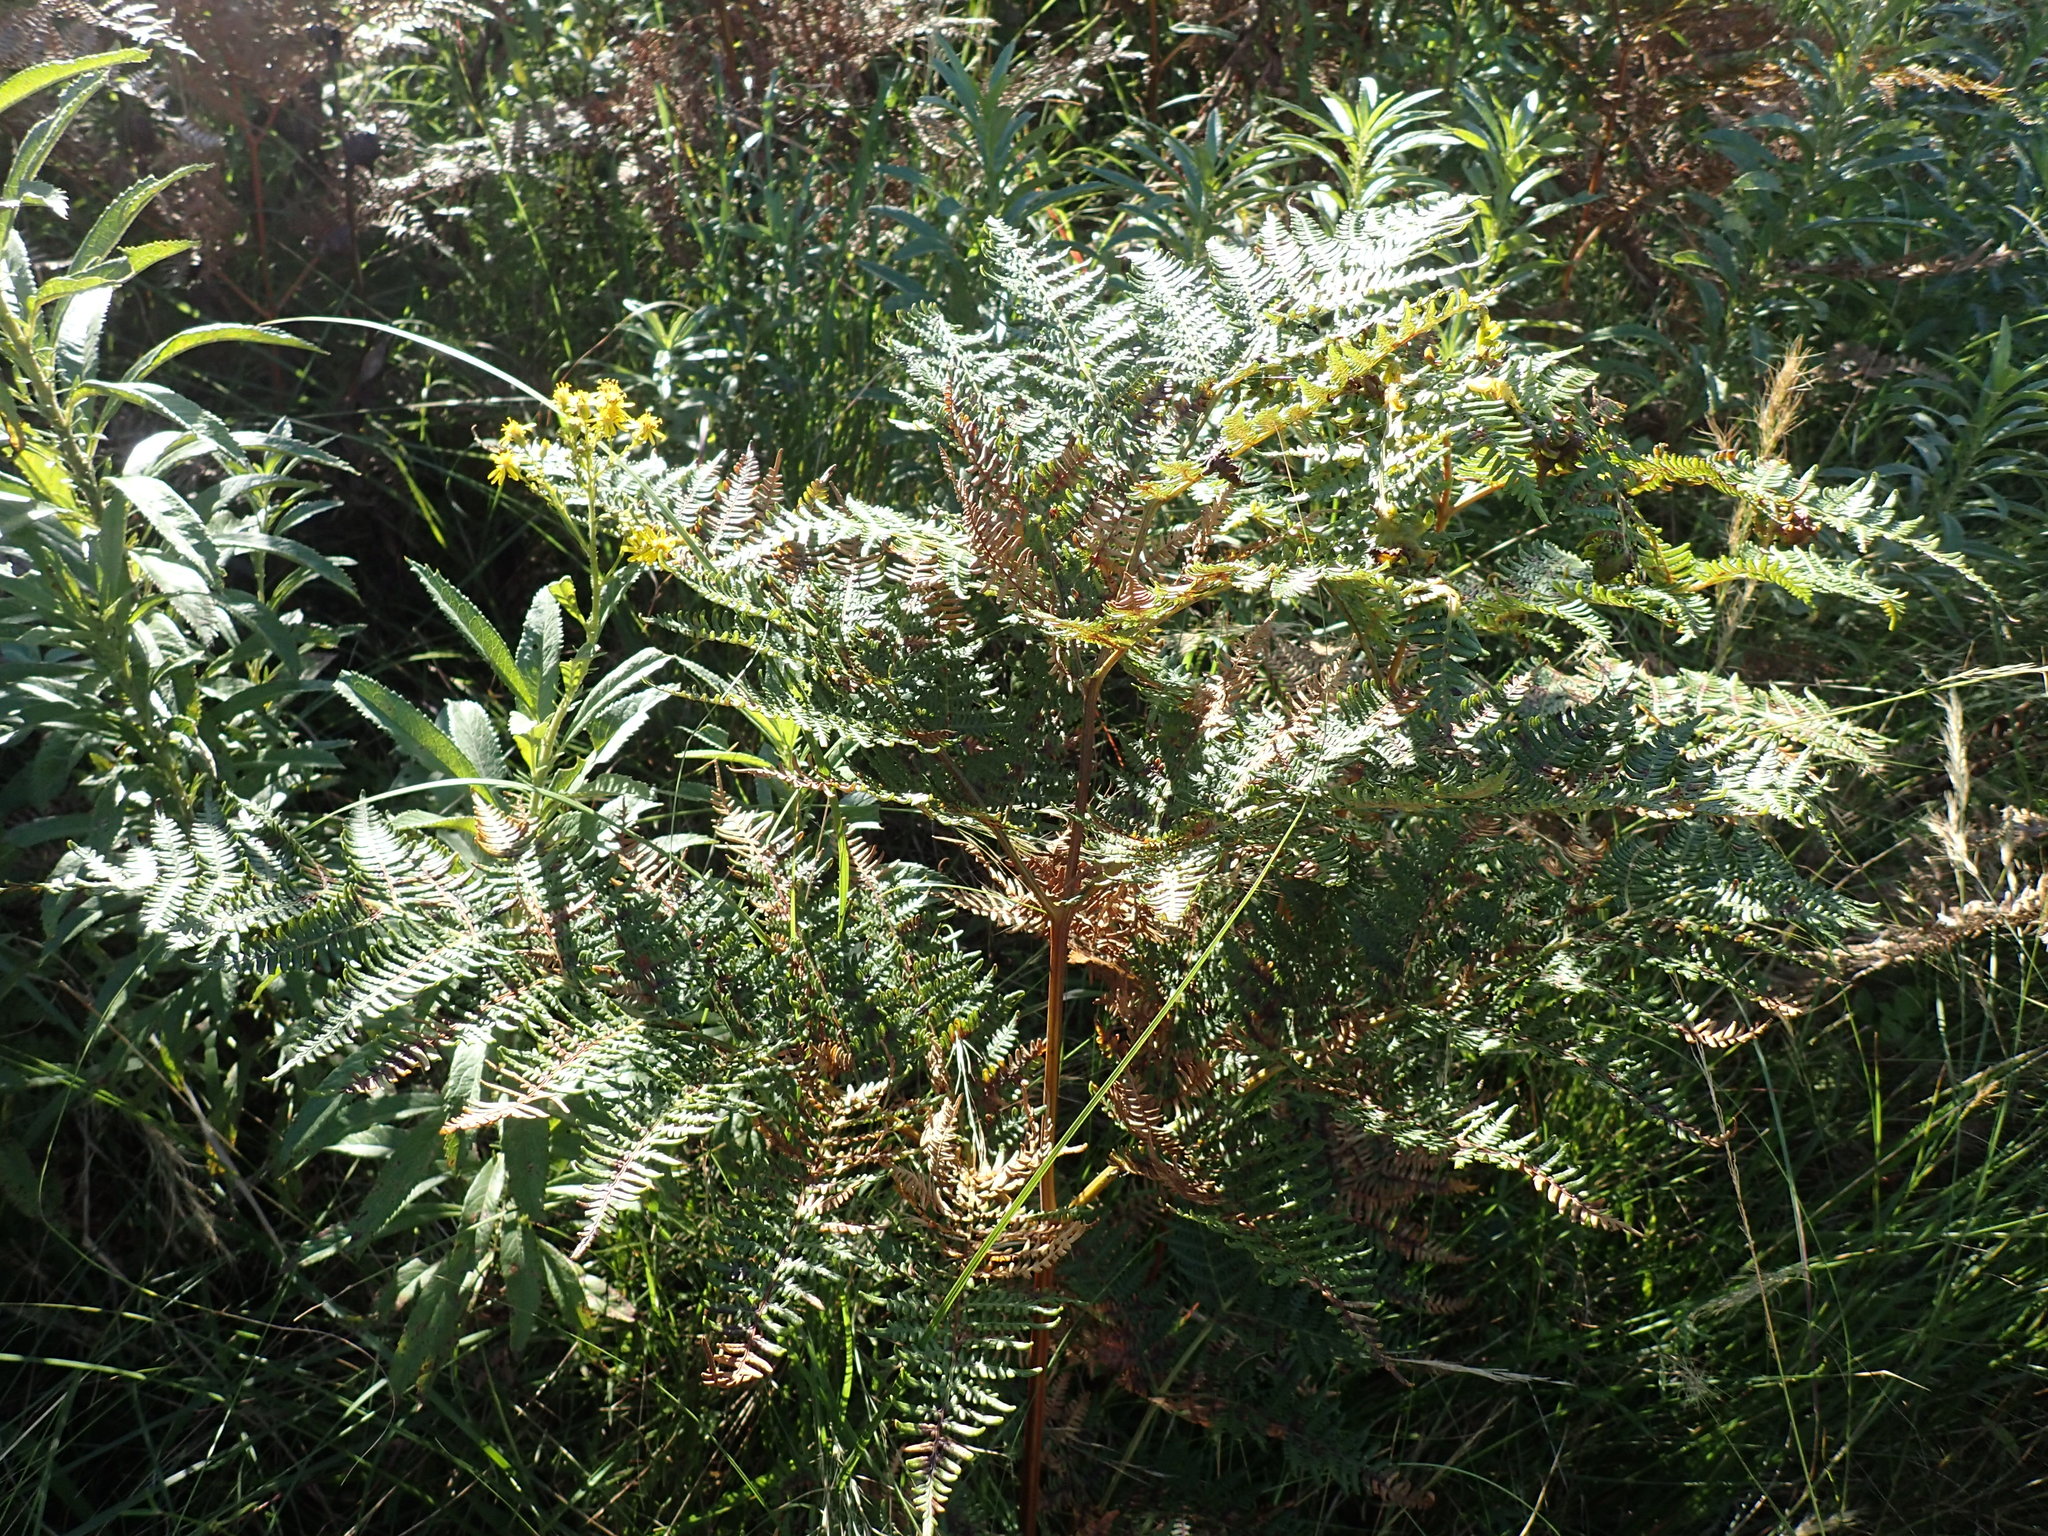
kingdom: Plantae
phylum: Tracheophyta
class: Polypodiopsida
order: Polypodiales
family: Dennstaedtiaceae
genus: Pteridium
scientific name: Pteridium aquilinum
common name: Bracken
